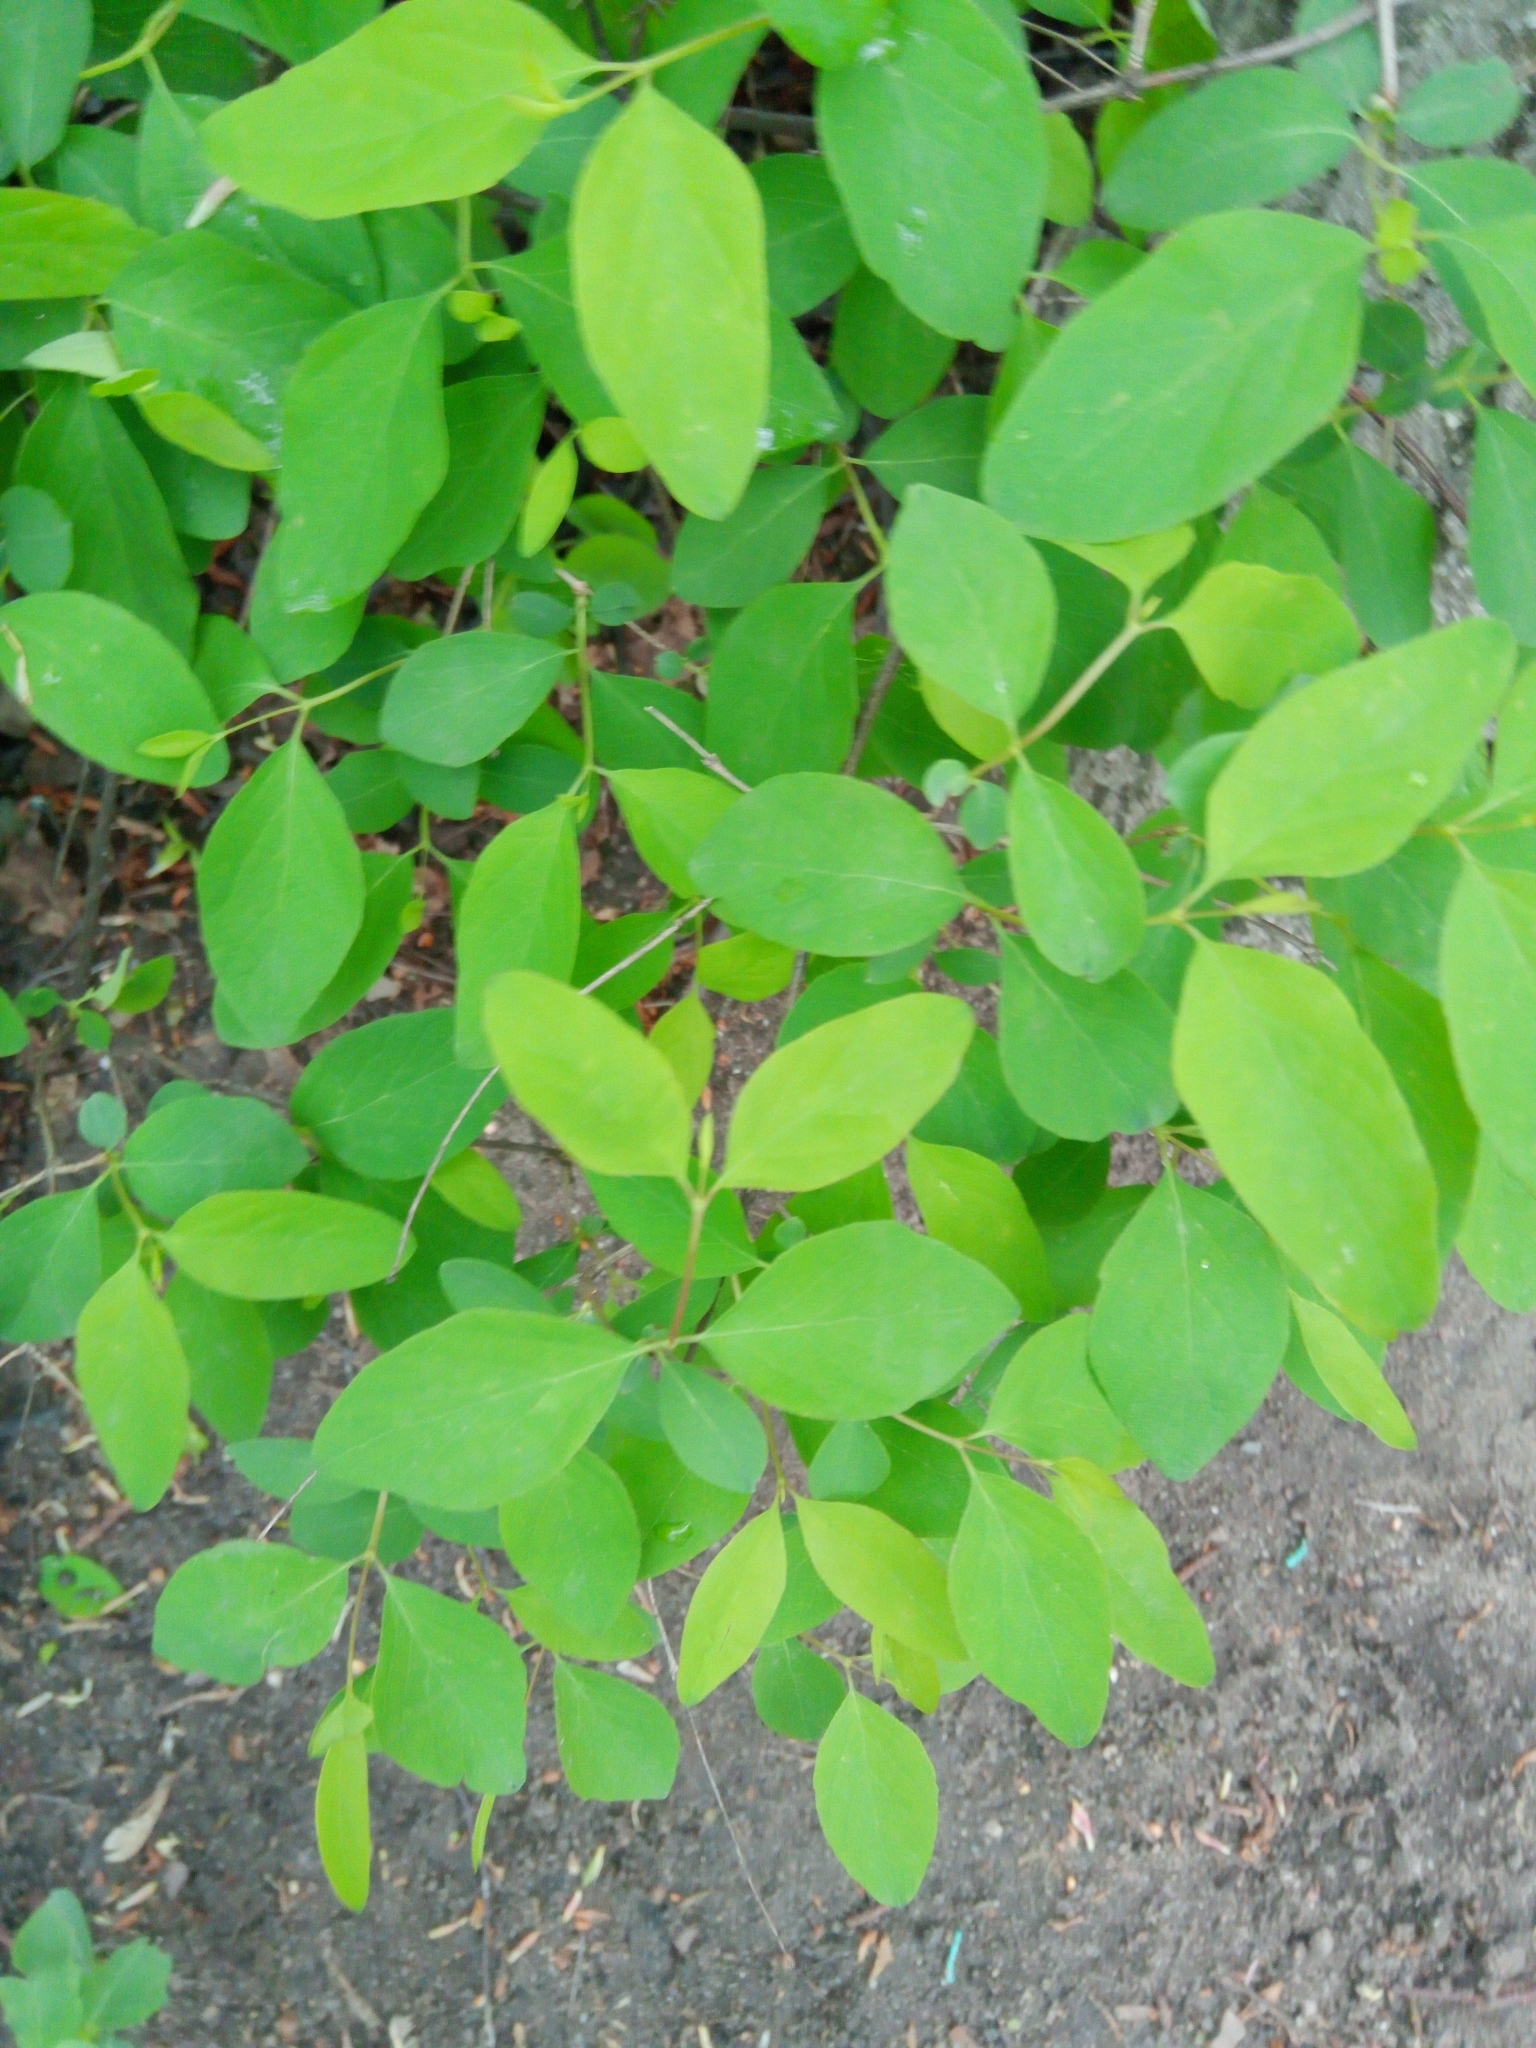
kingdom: Plantae
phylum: Tracheophyta
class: Magnoliopsida
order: Dipsacales
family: Caprifoliaceae
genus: Symphoricarpos
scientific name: Symphoricarpos albus
